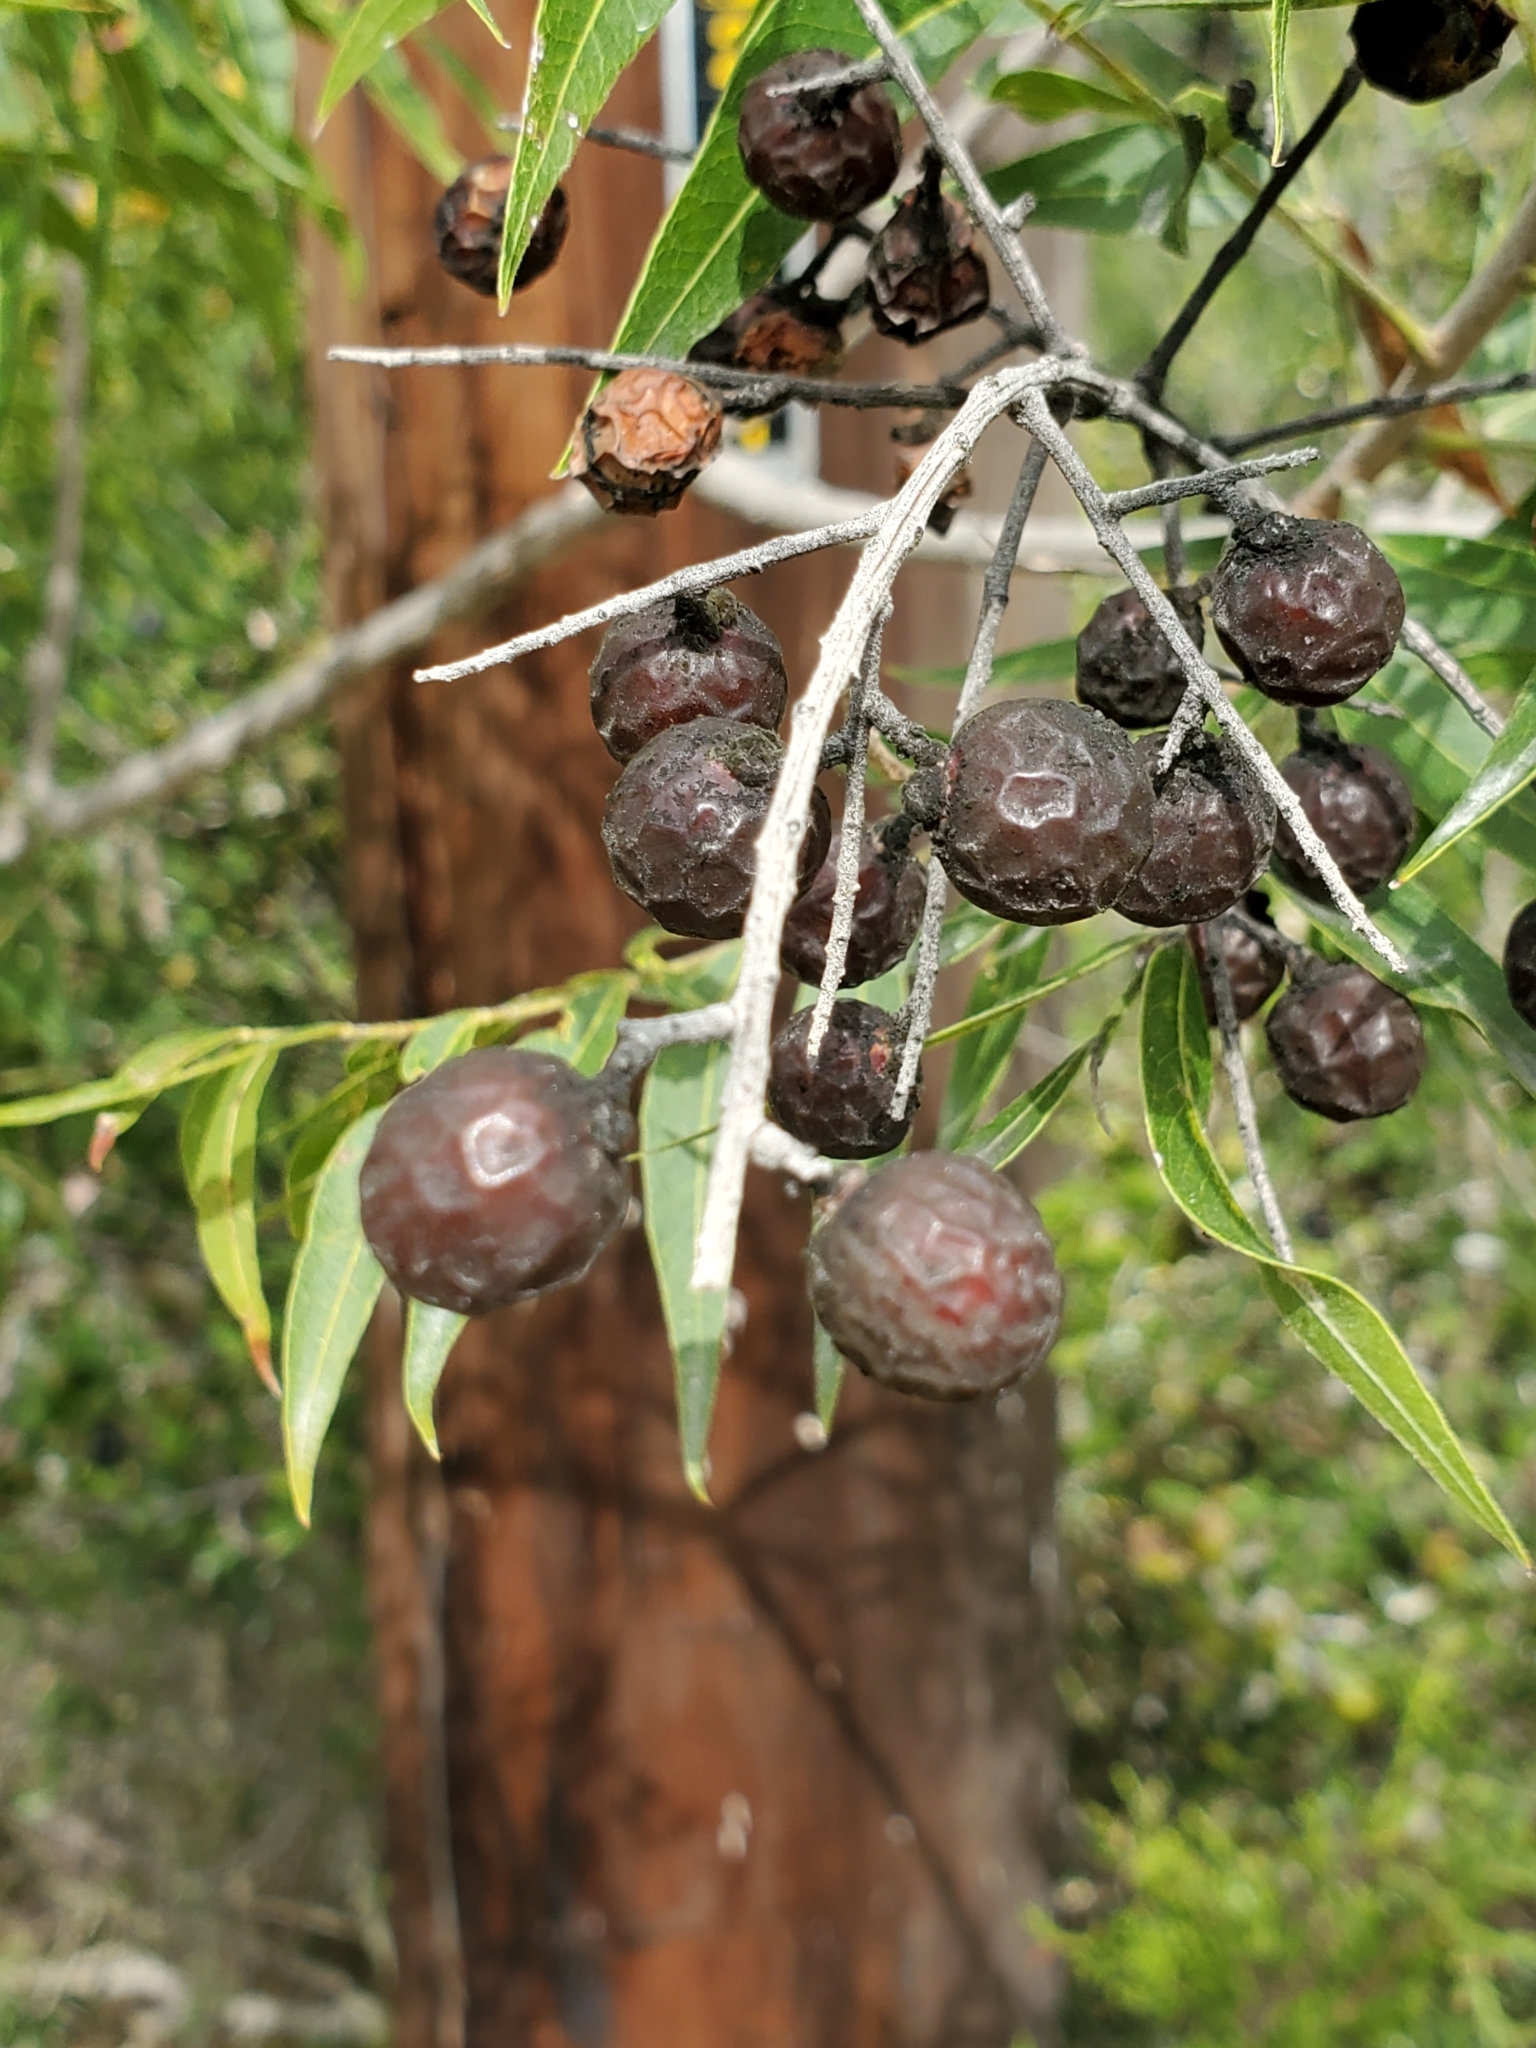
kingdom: Plantae
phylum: Tracheophyta
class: Magnoliopsida
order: Sapindales
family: Sapindaceae
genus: Sapindus
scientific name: Sapindus drummondii
